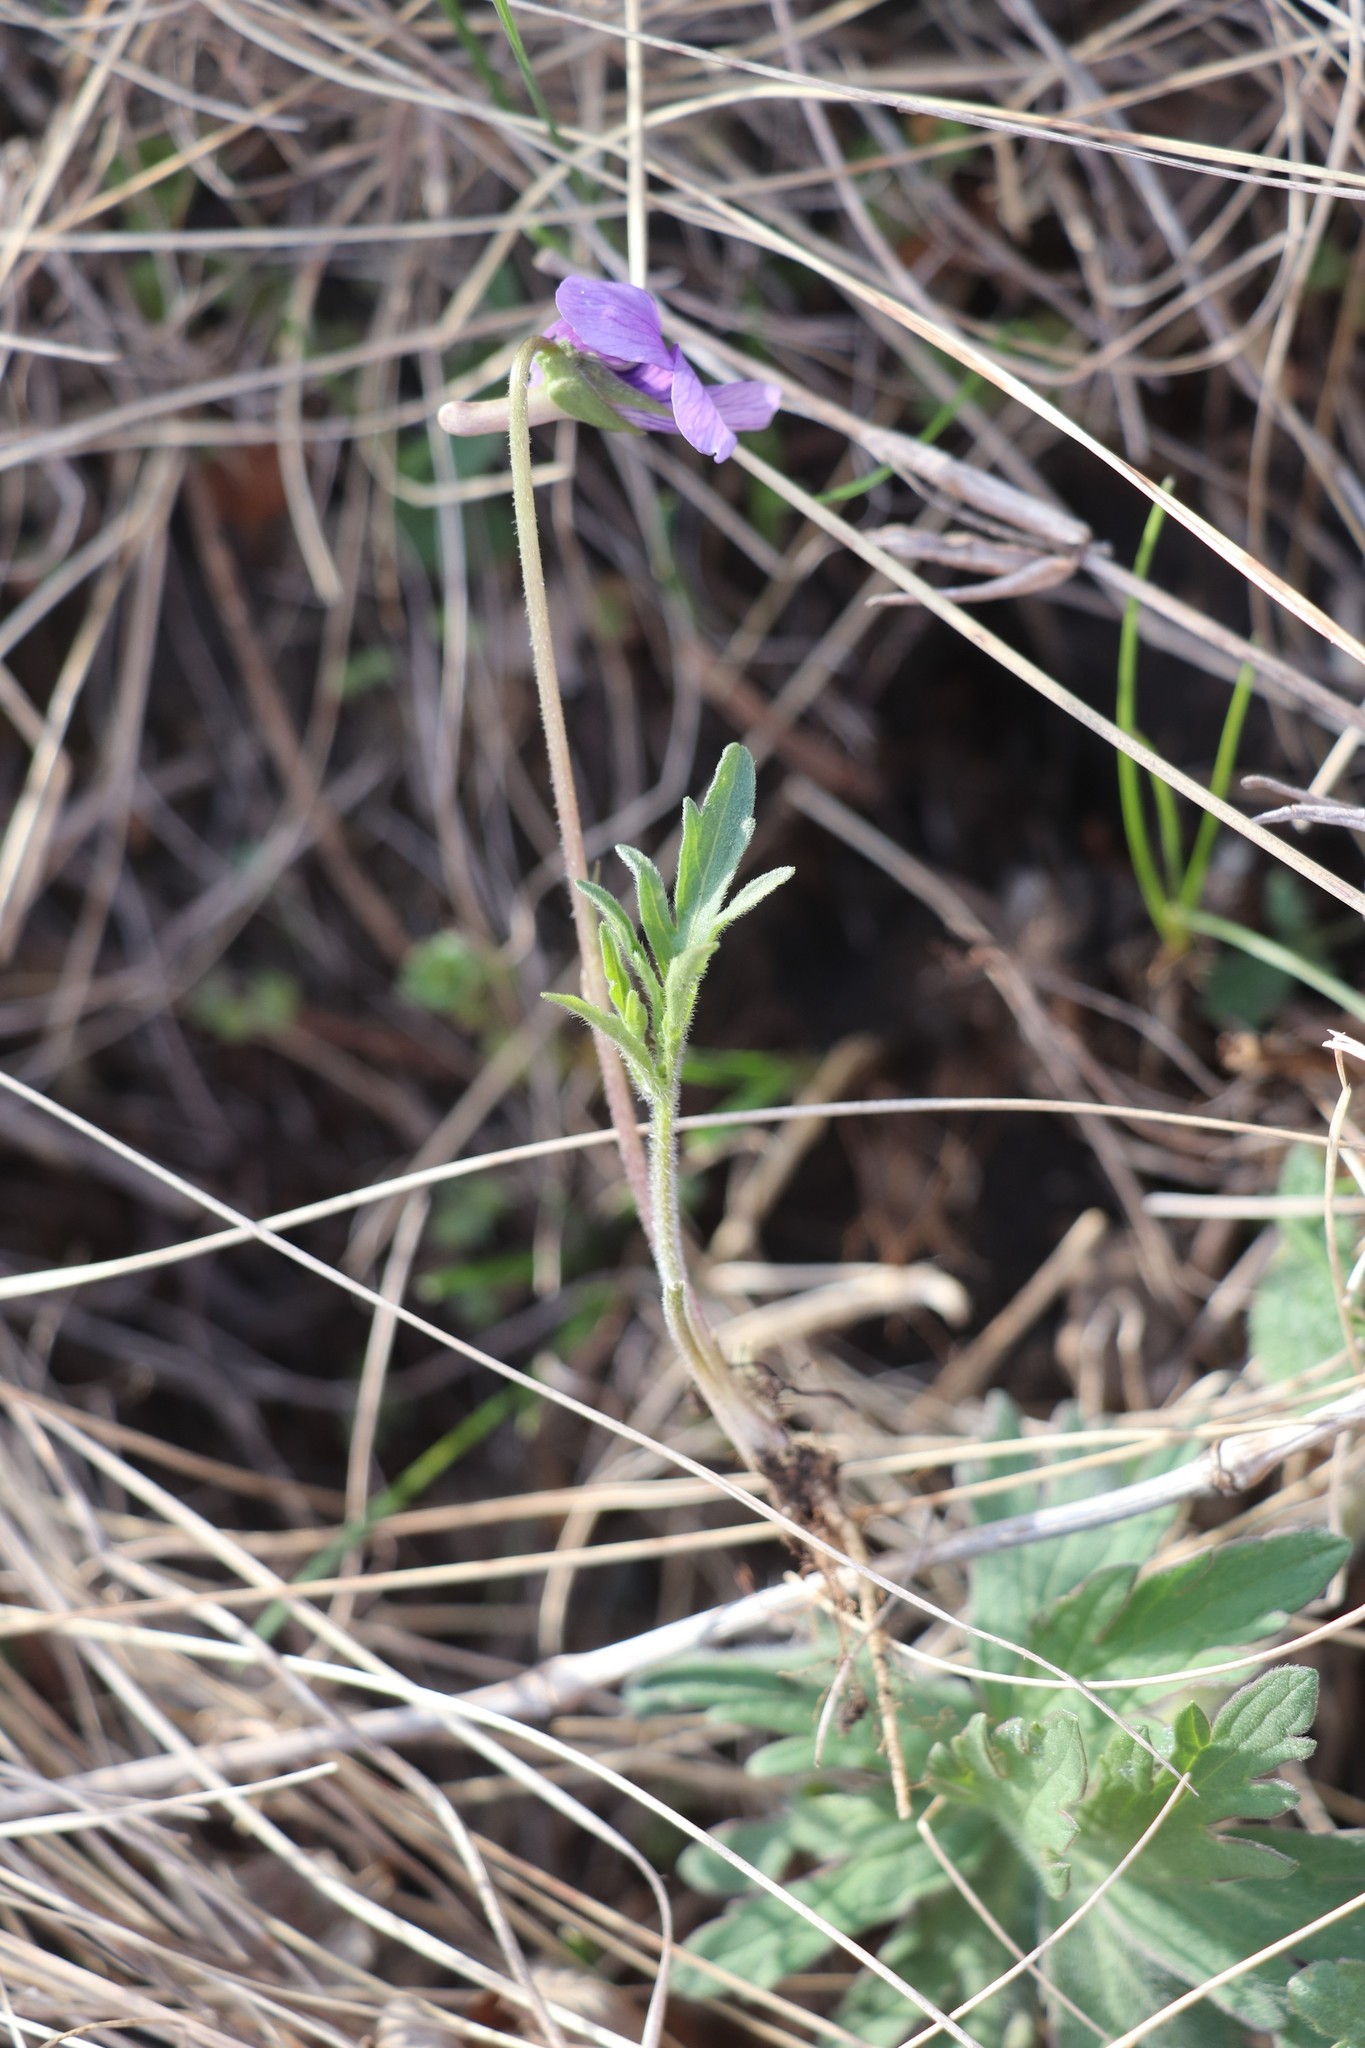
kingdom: Plantae
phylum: Tracheophyta
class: Magnoliopsida
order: Malpighiales
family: Violaceae
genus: Viola
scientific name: Viola multifida
